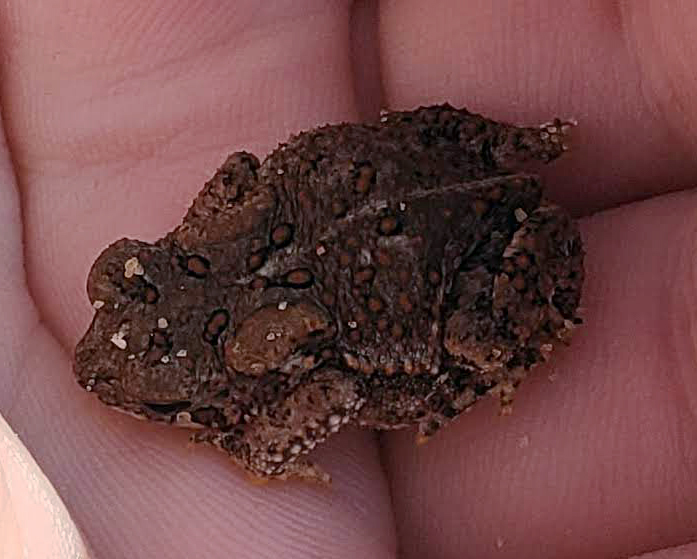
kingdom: Animalia
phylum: Chordata
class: Amphibia
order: Anura
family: Bufonidae
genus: Anaxyrus
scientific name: Anaxyrus americanus
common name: American toad
